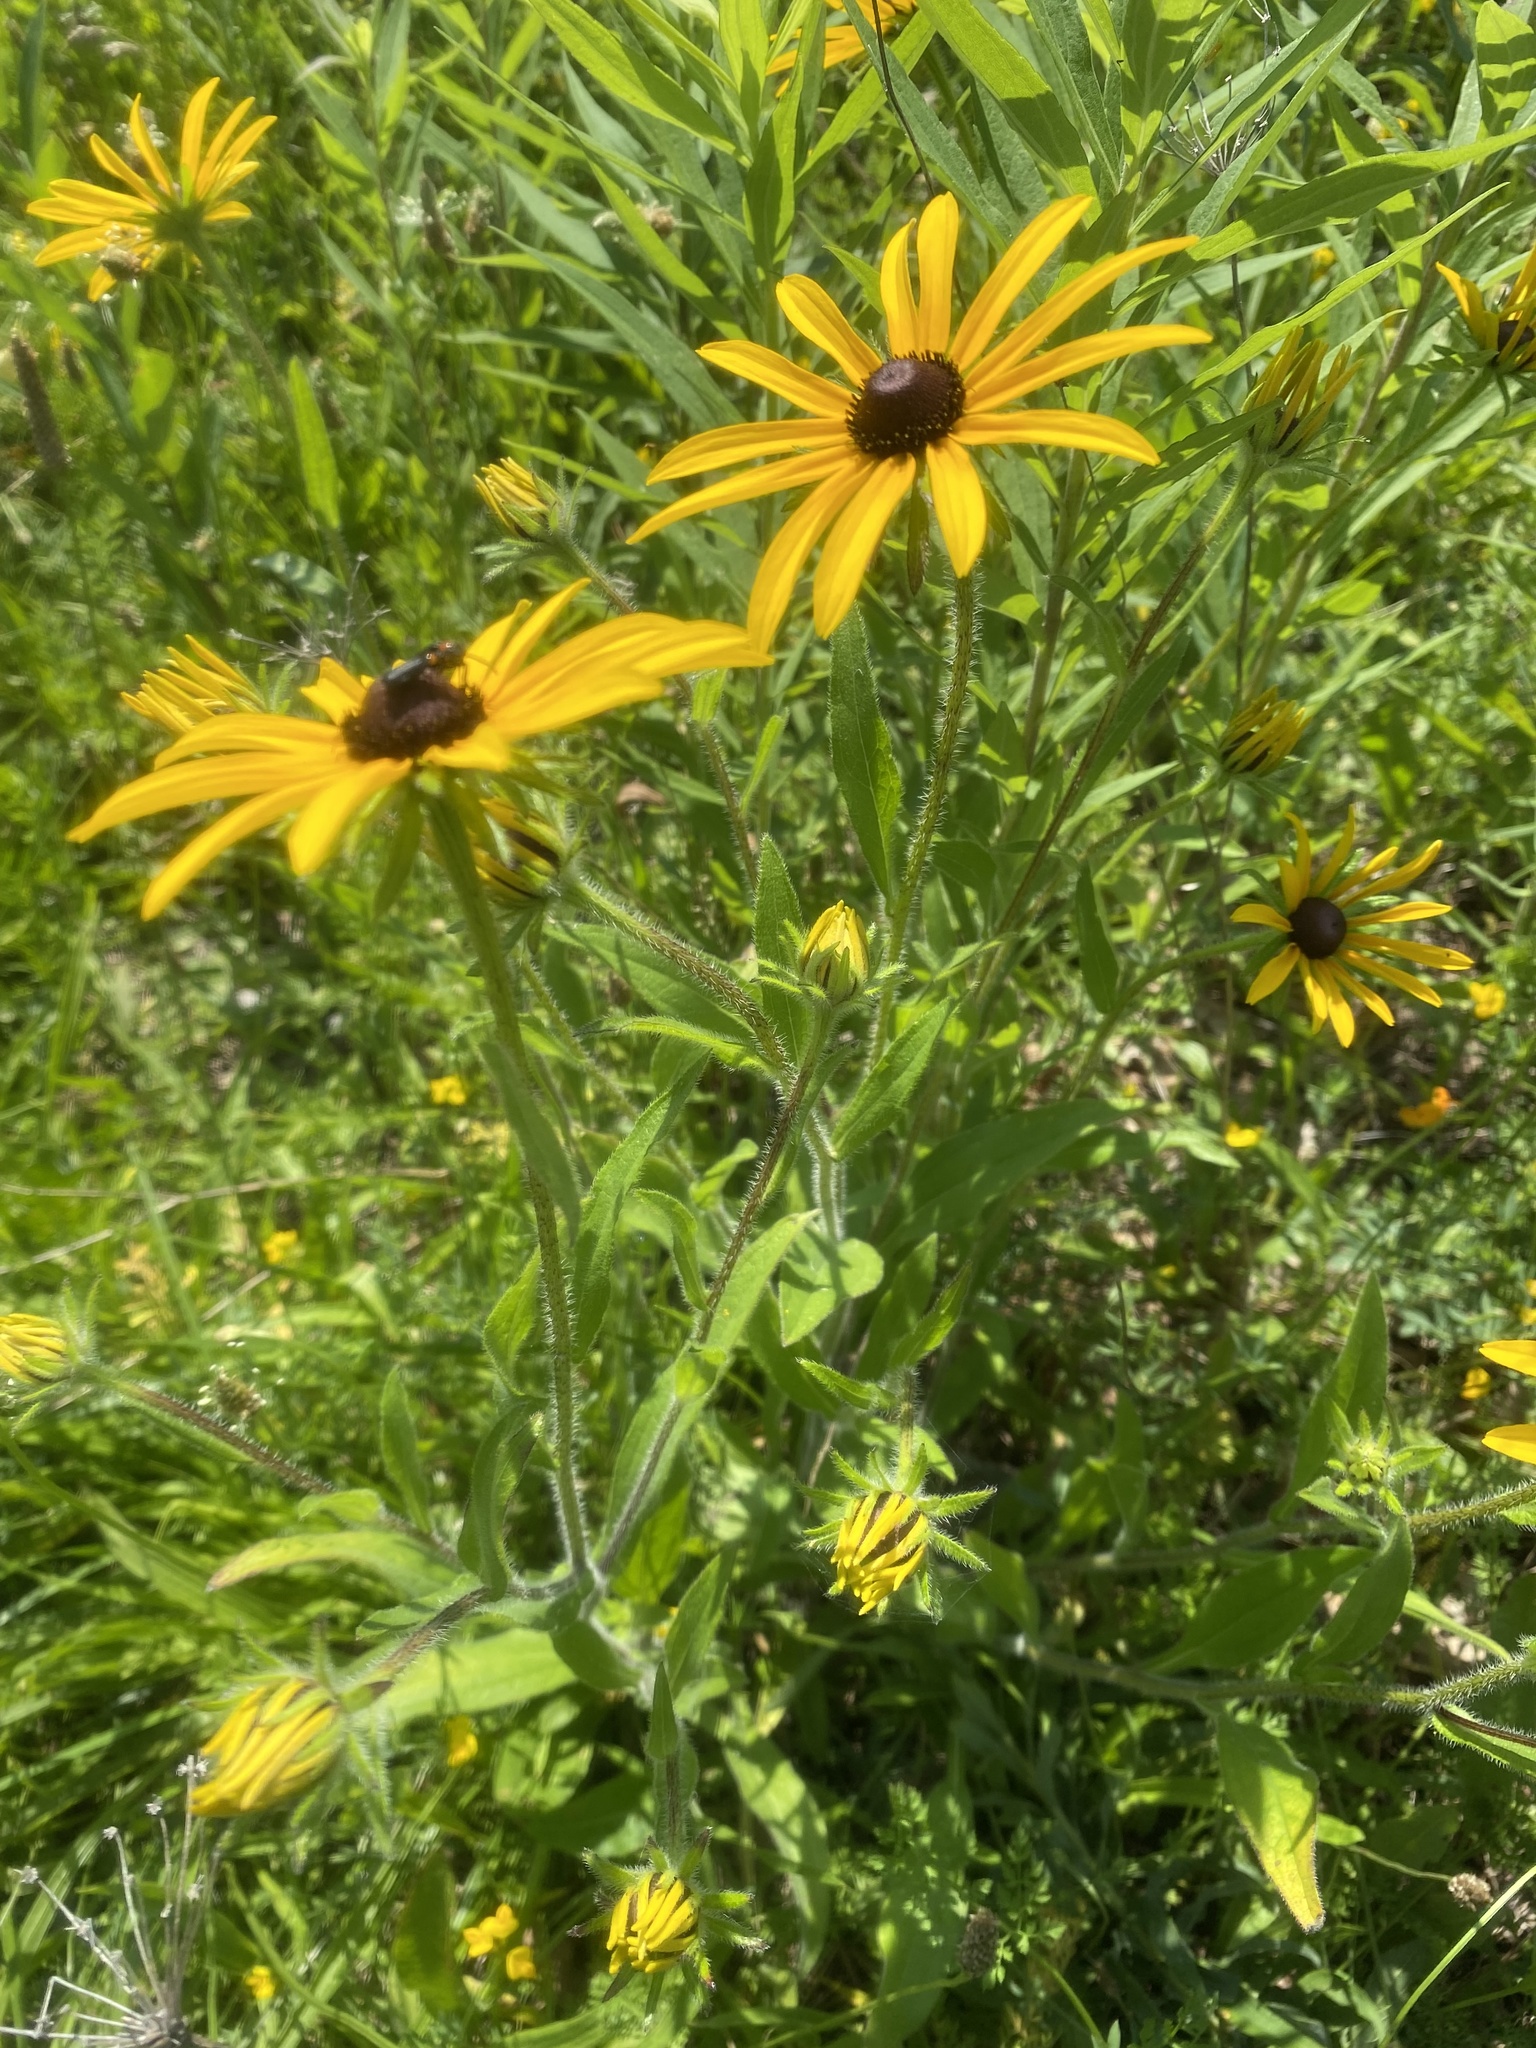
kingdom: Plantae
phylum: Tracheophyta
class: Magnoliopsida
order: Asterales
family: Asteraceae
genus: Rudbeckia
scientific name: Rudbeckia hirta
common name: Black-eyed-susan
